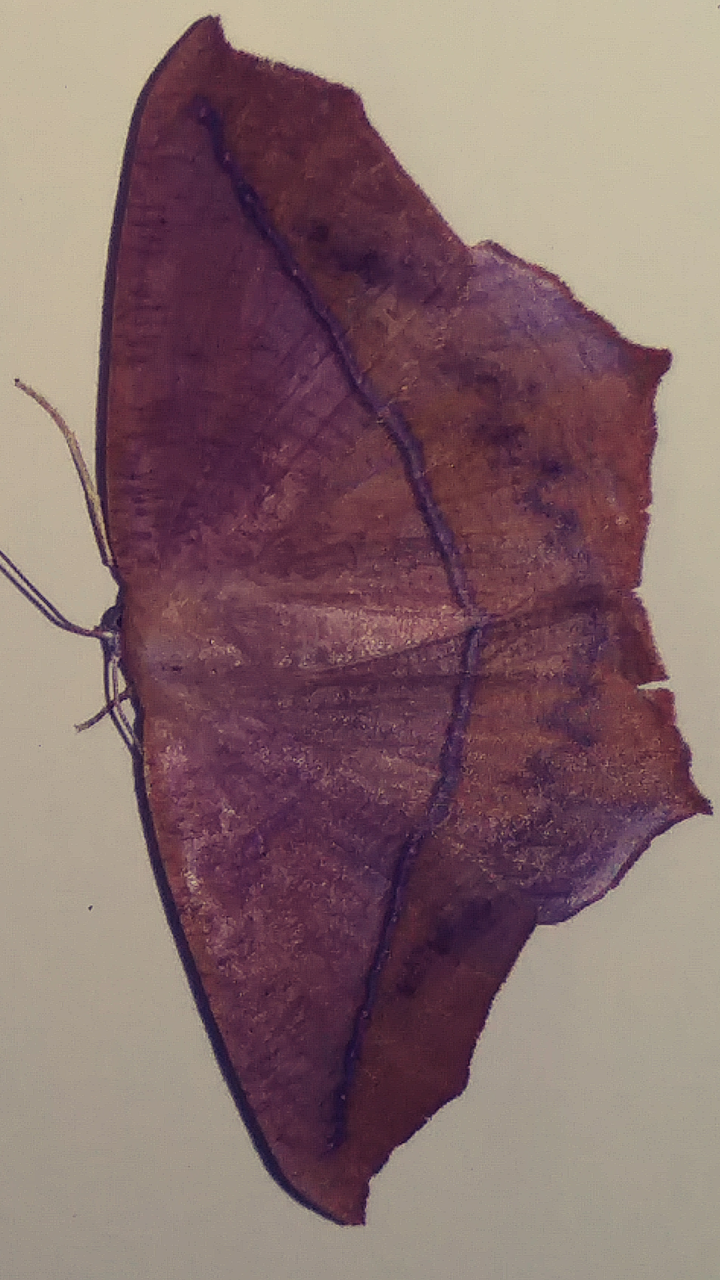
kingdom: Animalia
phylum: Arthropoda
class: Insecta
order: Lepidoptera
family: Geometridae
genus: Prochoerodes
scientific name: Prochoerodes lineola
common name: Large maple spanworm
